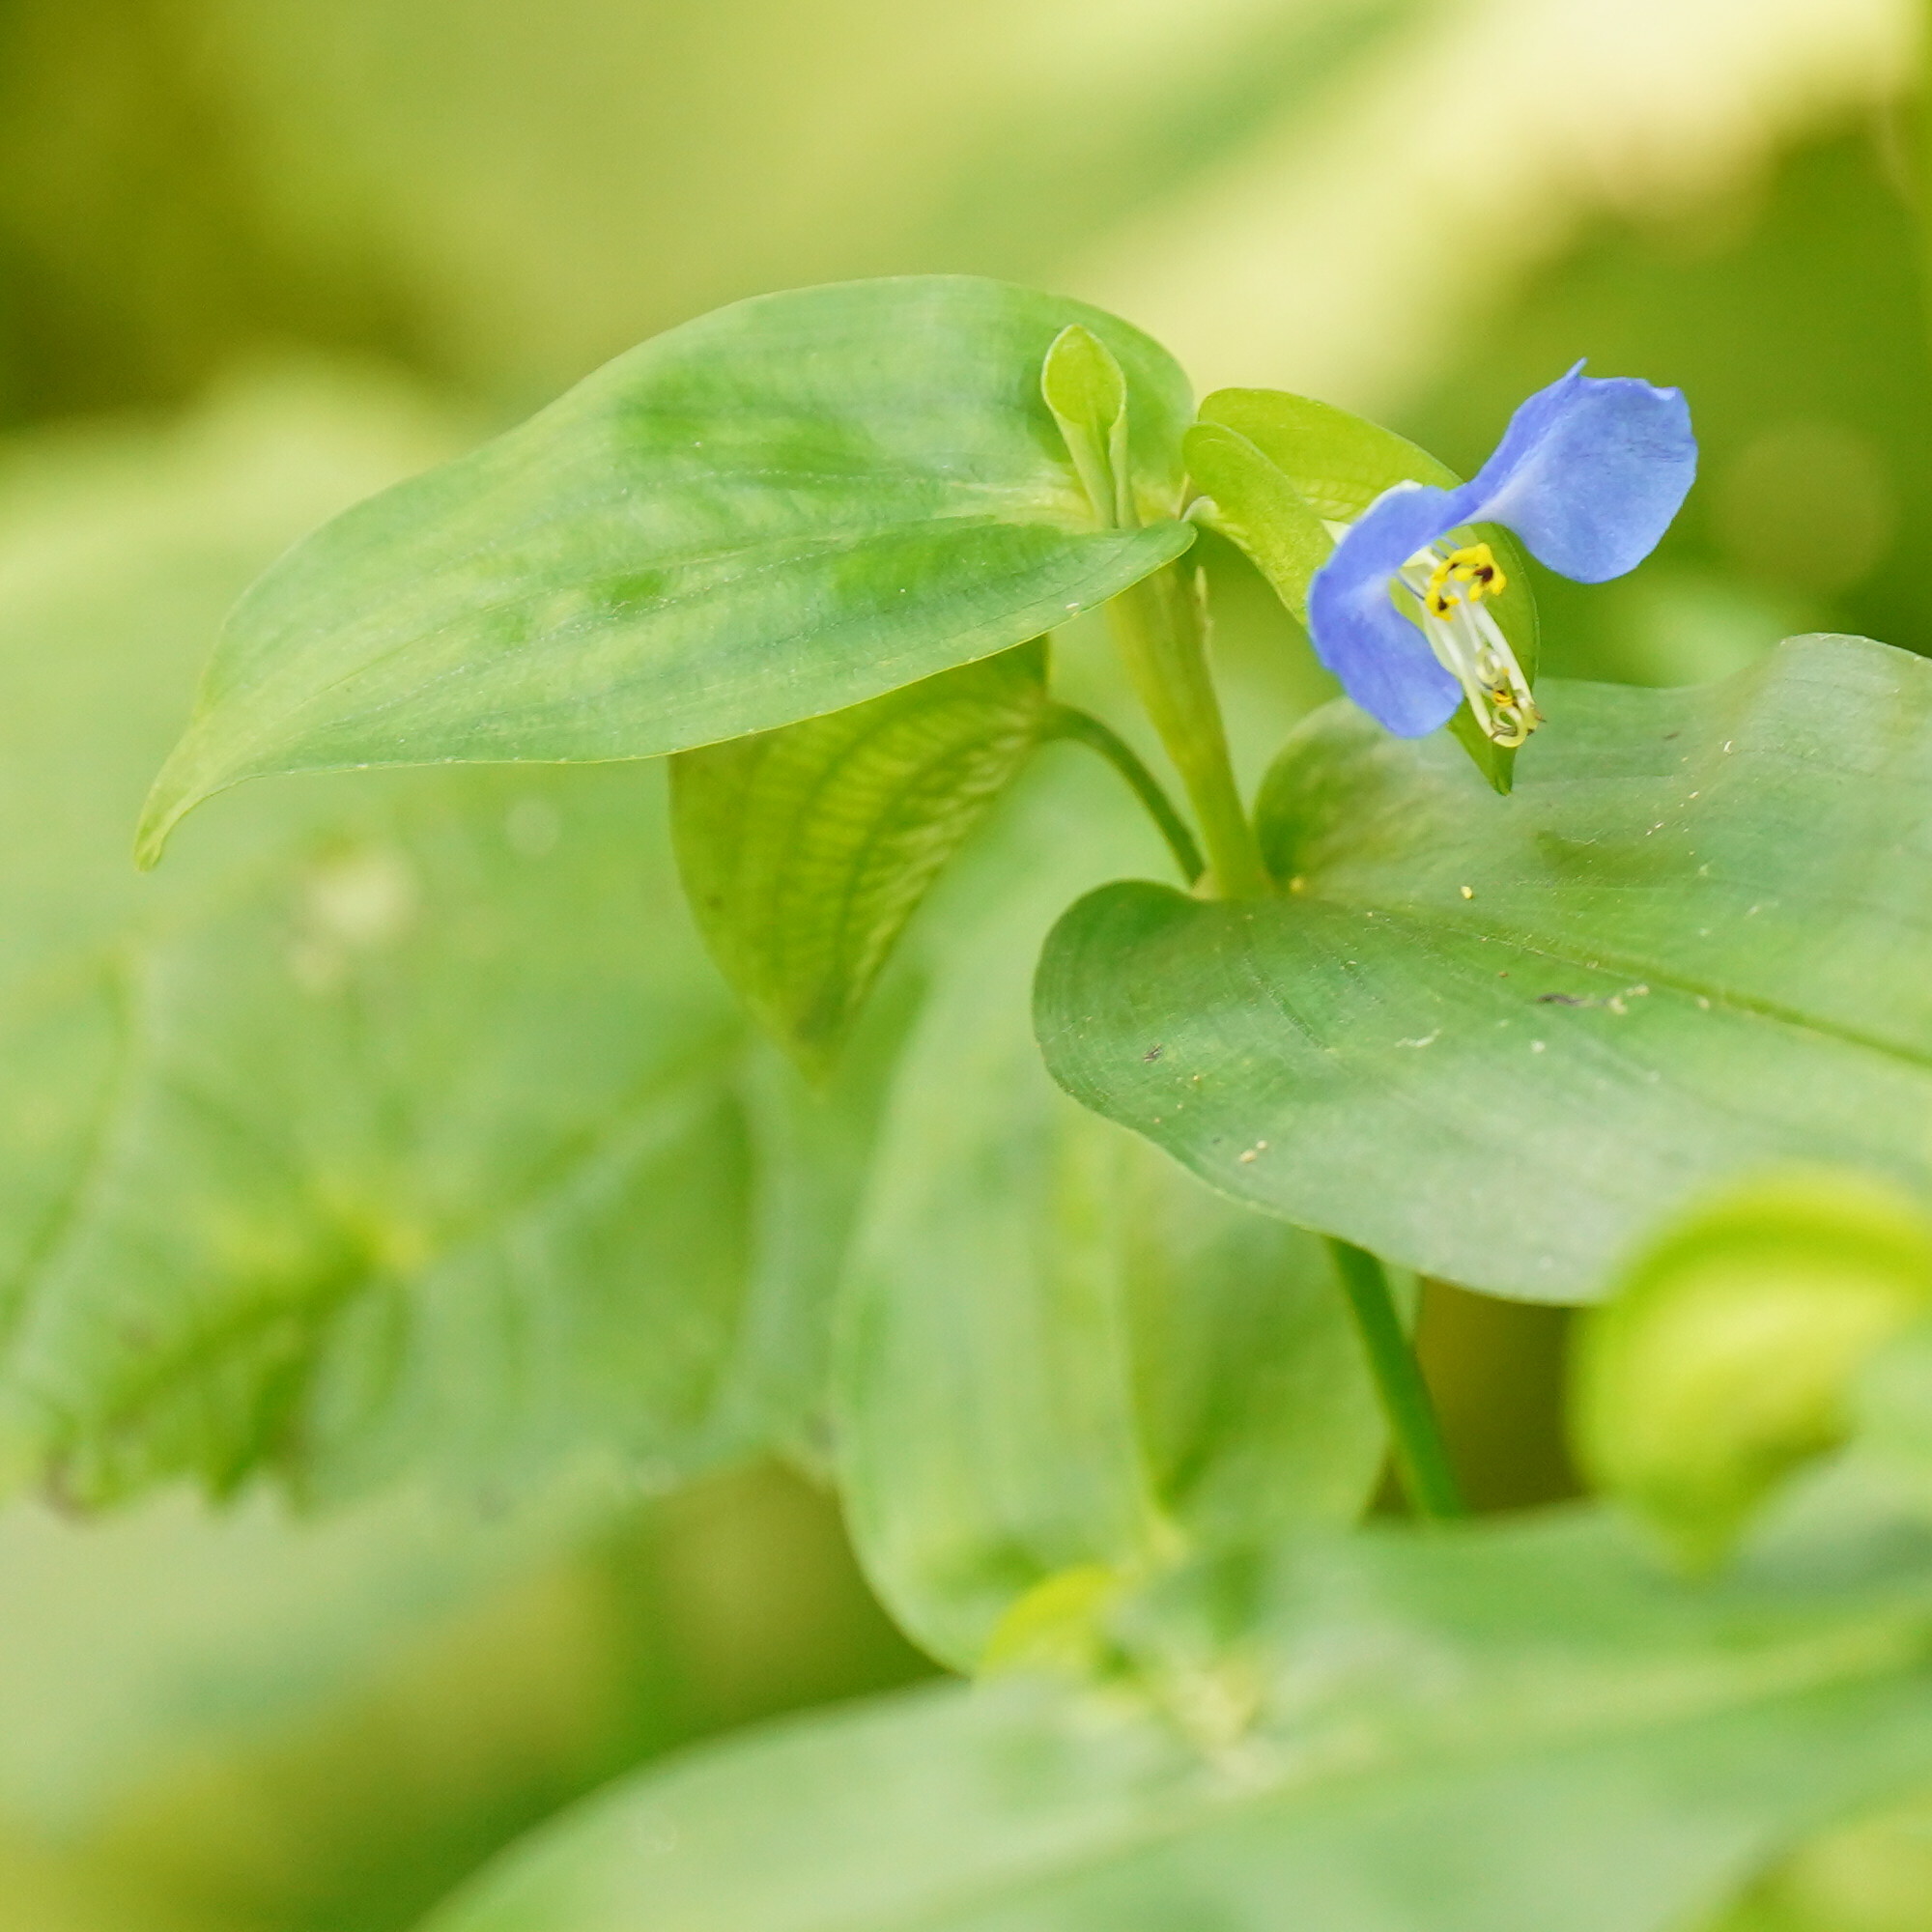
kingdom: Plantae
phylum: Tracheophyta
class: Liliopsida
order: Commelinales
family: Commelinaceae
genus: Commelina
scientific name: Commelina communis
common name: Asiatic dayflower
